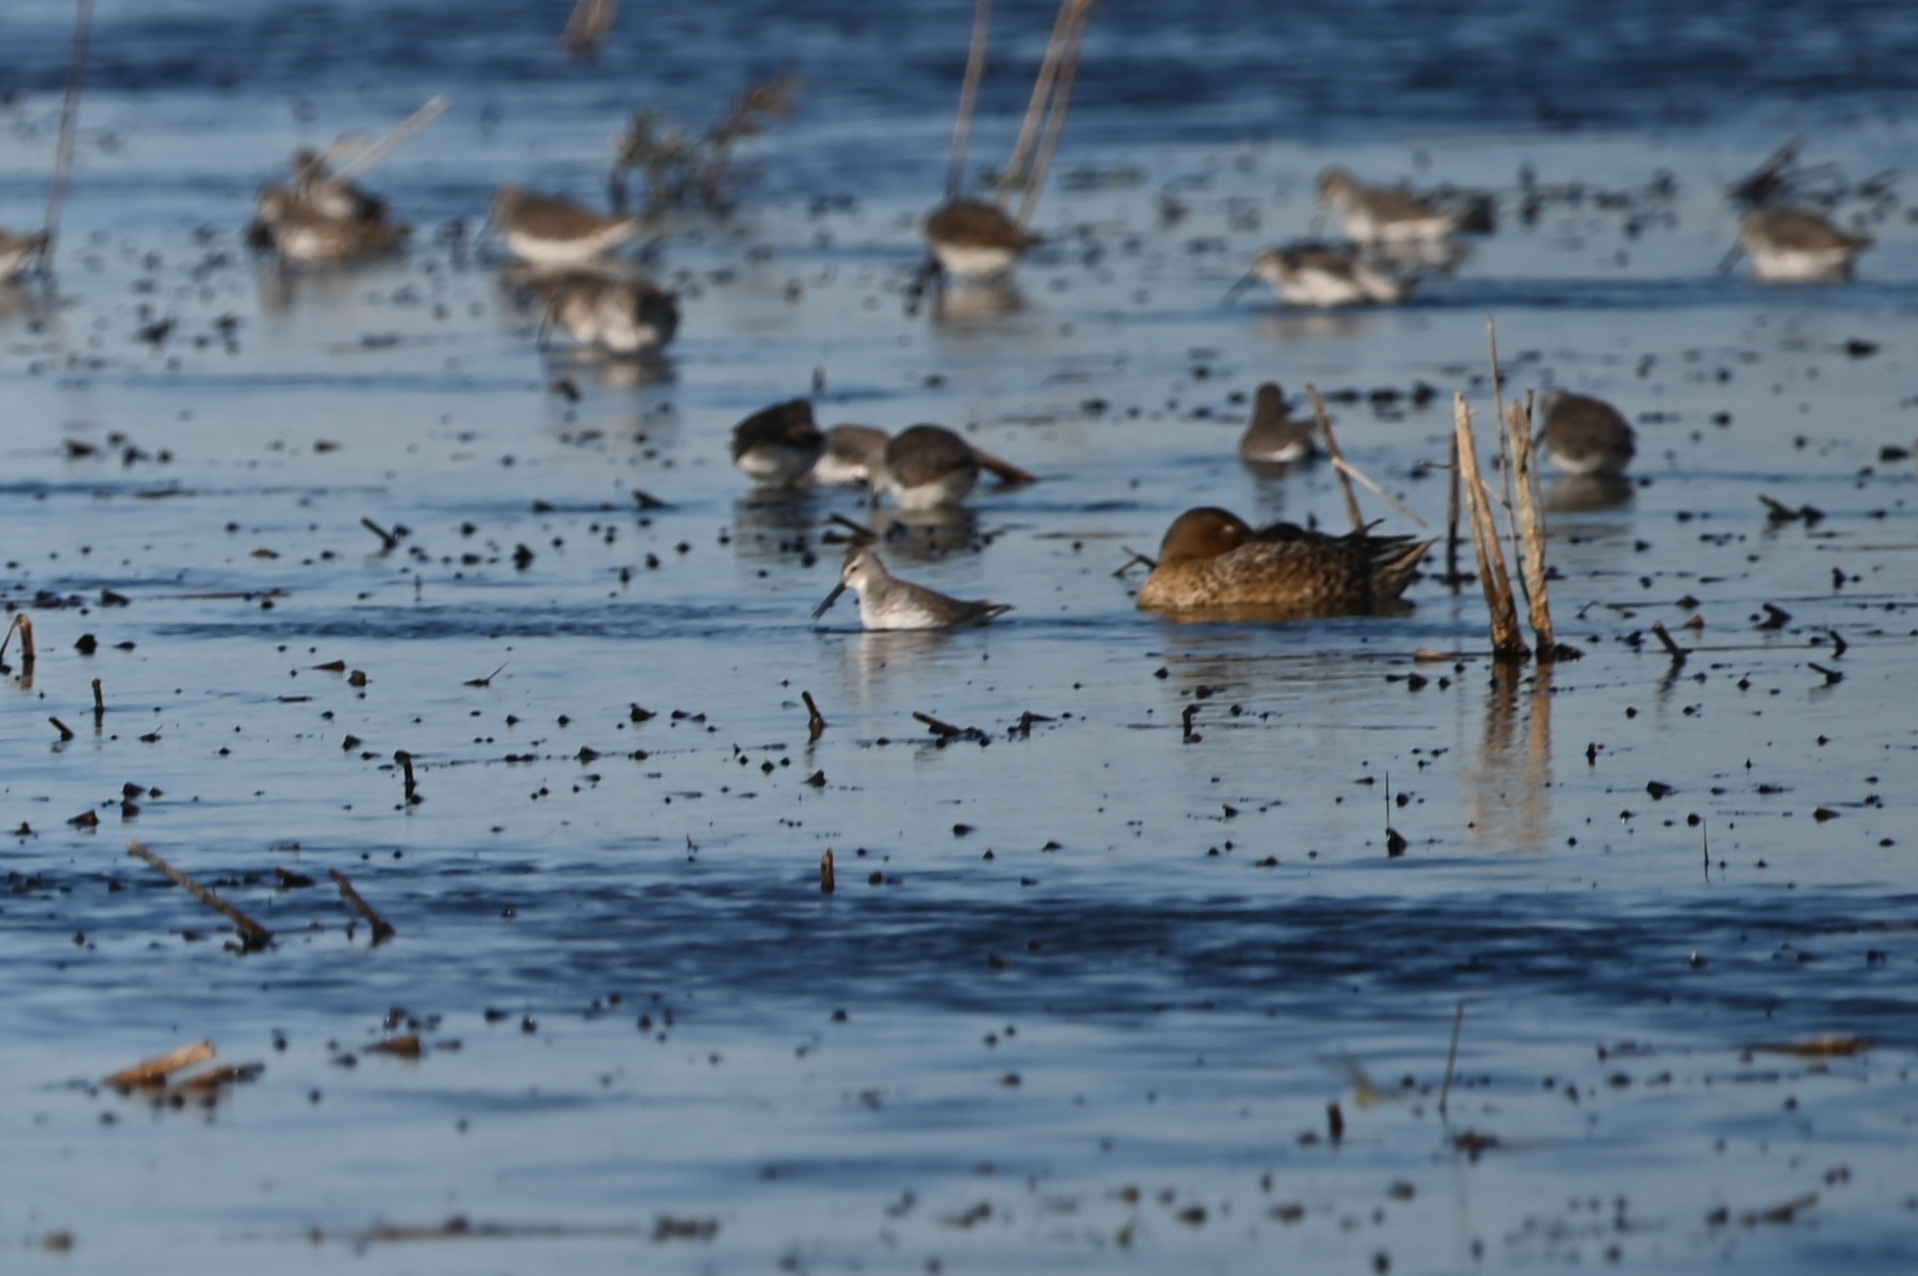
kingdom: Animalia
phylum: Chordata
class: Aves
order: Charadriiformes
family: Scolopacidae
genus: Calidris
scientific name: Calidris himantopus
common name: Stilt sandpiper
